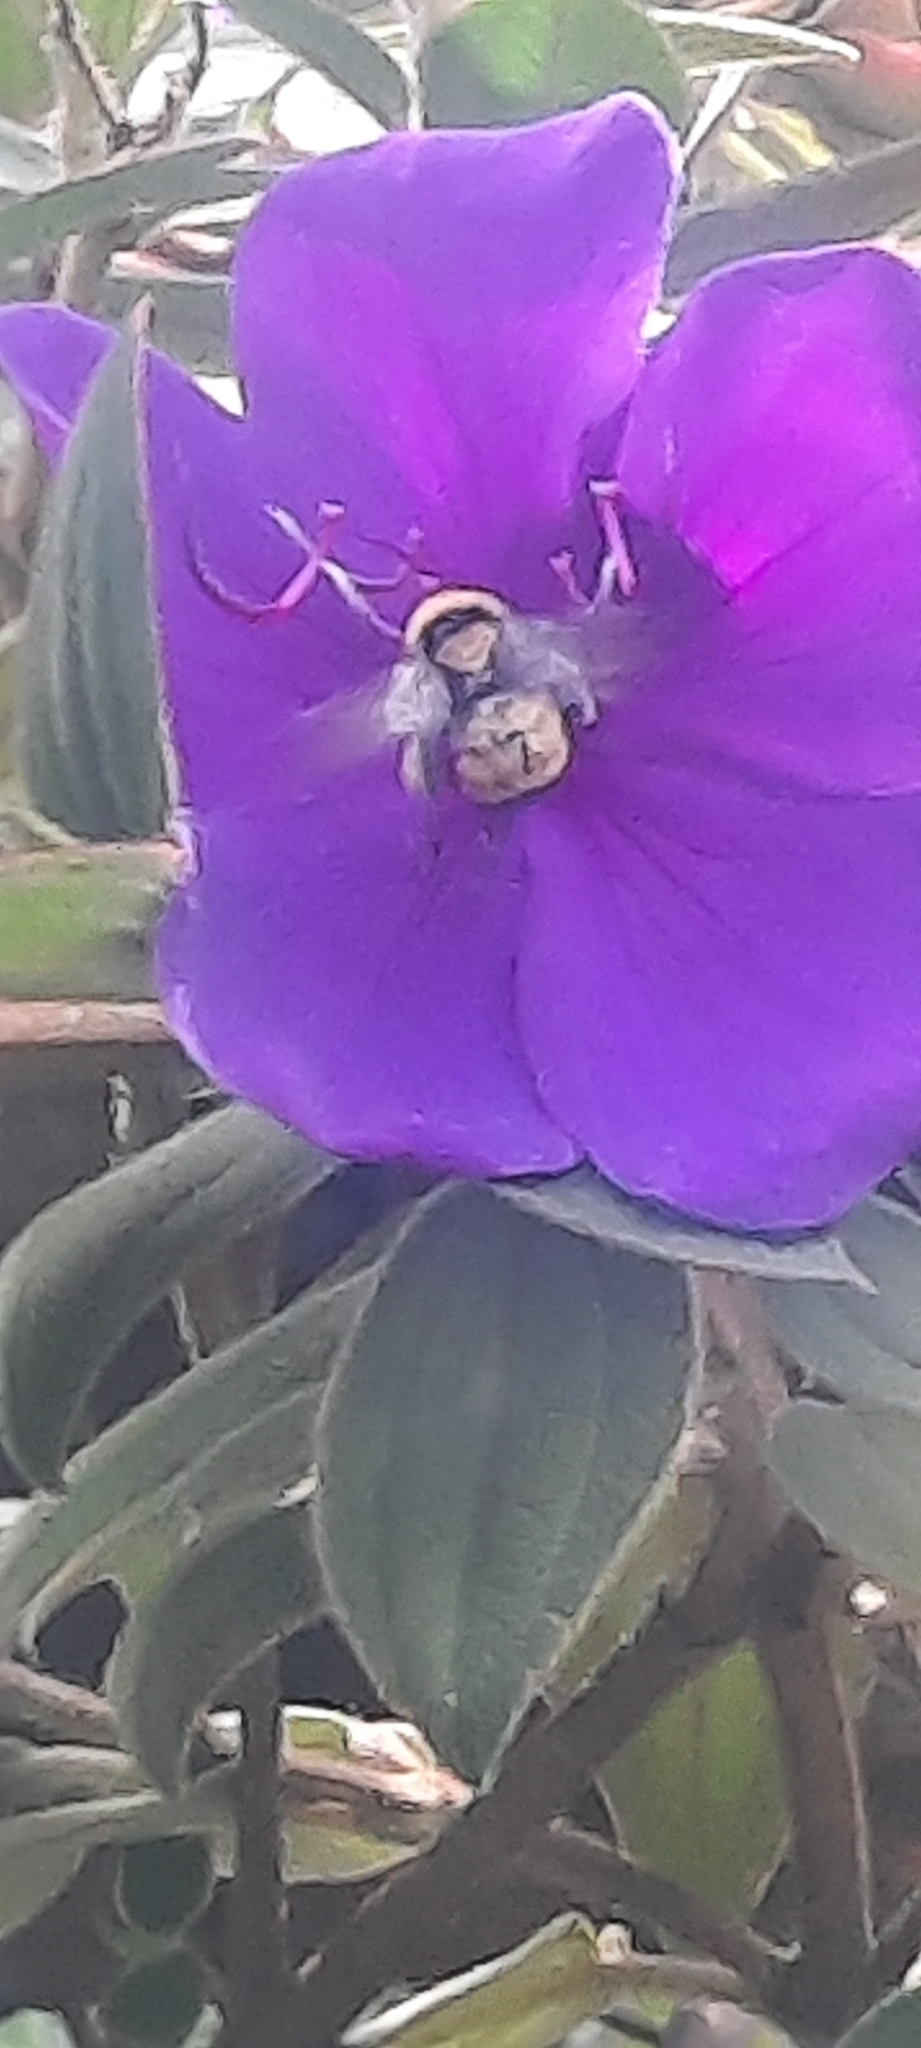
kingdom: Animalia
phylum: Arthropoda
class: Insecta
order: Hymenoptera
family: Apidae
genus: Bombus
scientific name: Bombus sonorus
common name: Sonoran bumble bee
